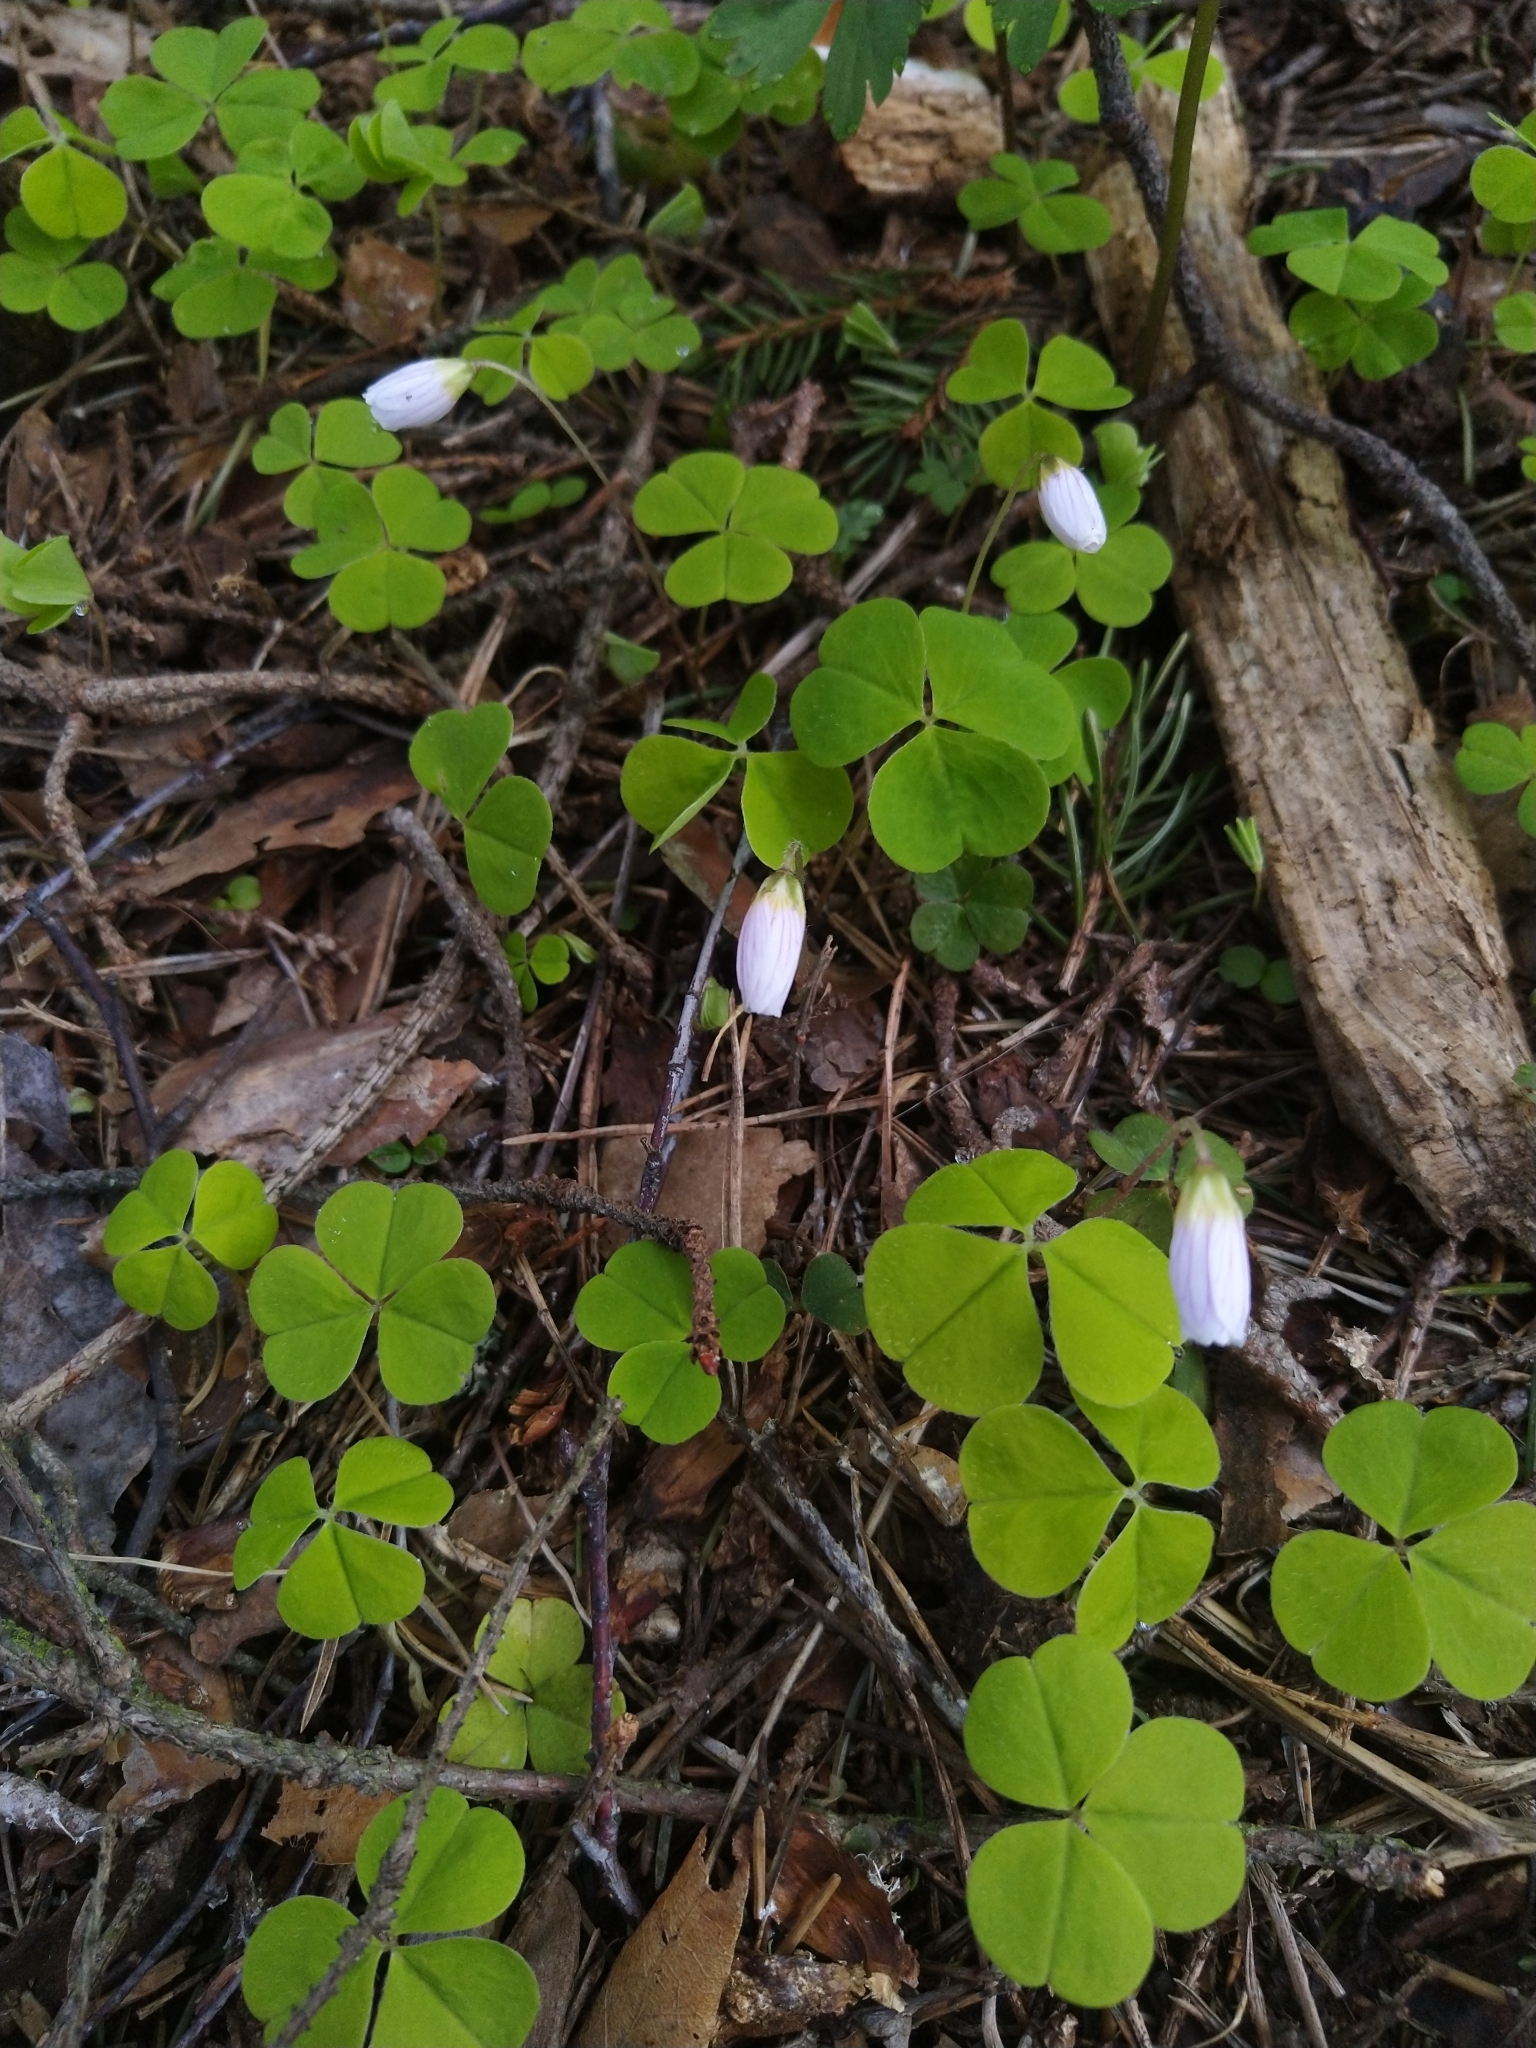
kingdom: Plantae
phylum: Tracheophyta
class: Magnoliopsida
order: Oxalidales
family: Oxalidaceae
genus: Oxalis
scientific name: Oxalis acetosella
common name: Wood-sorrel
